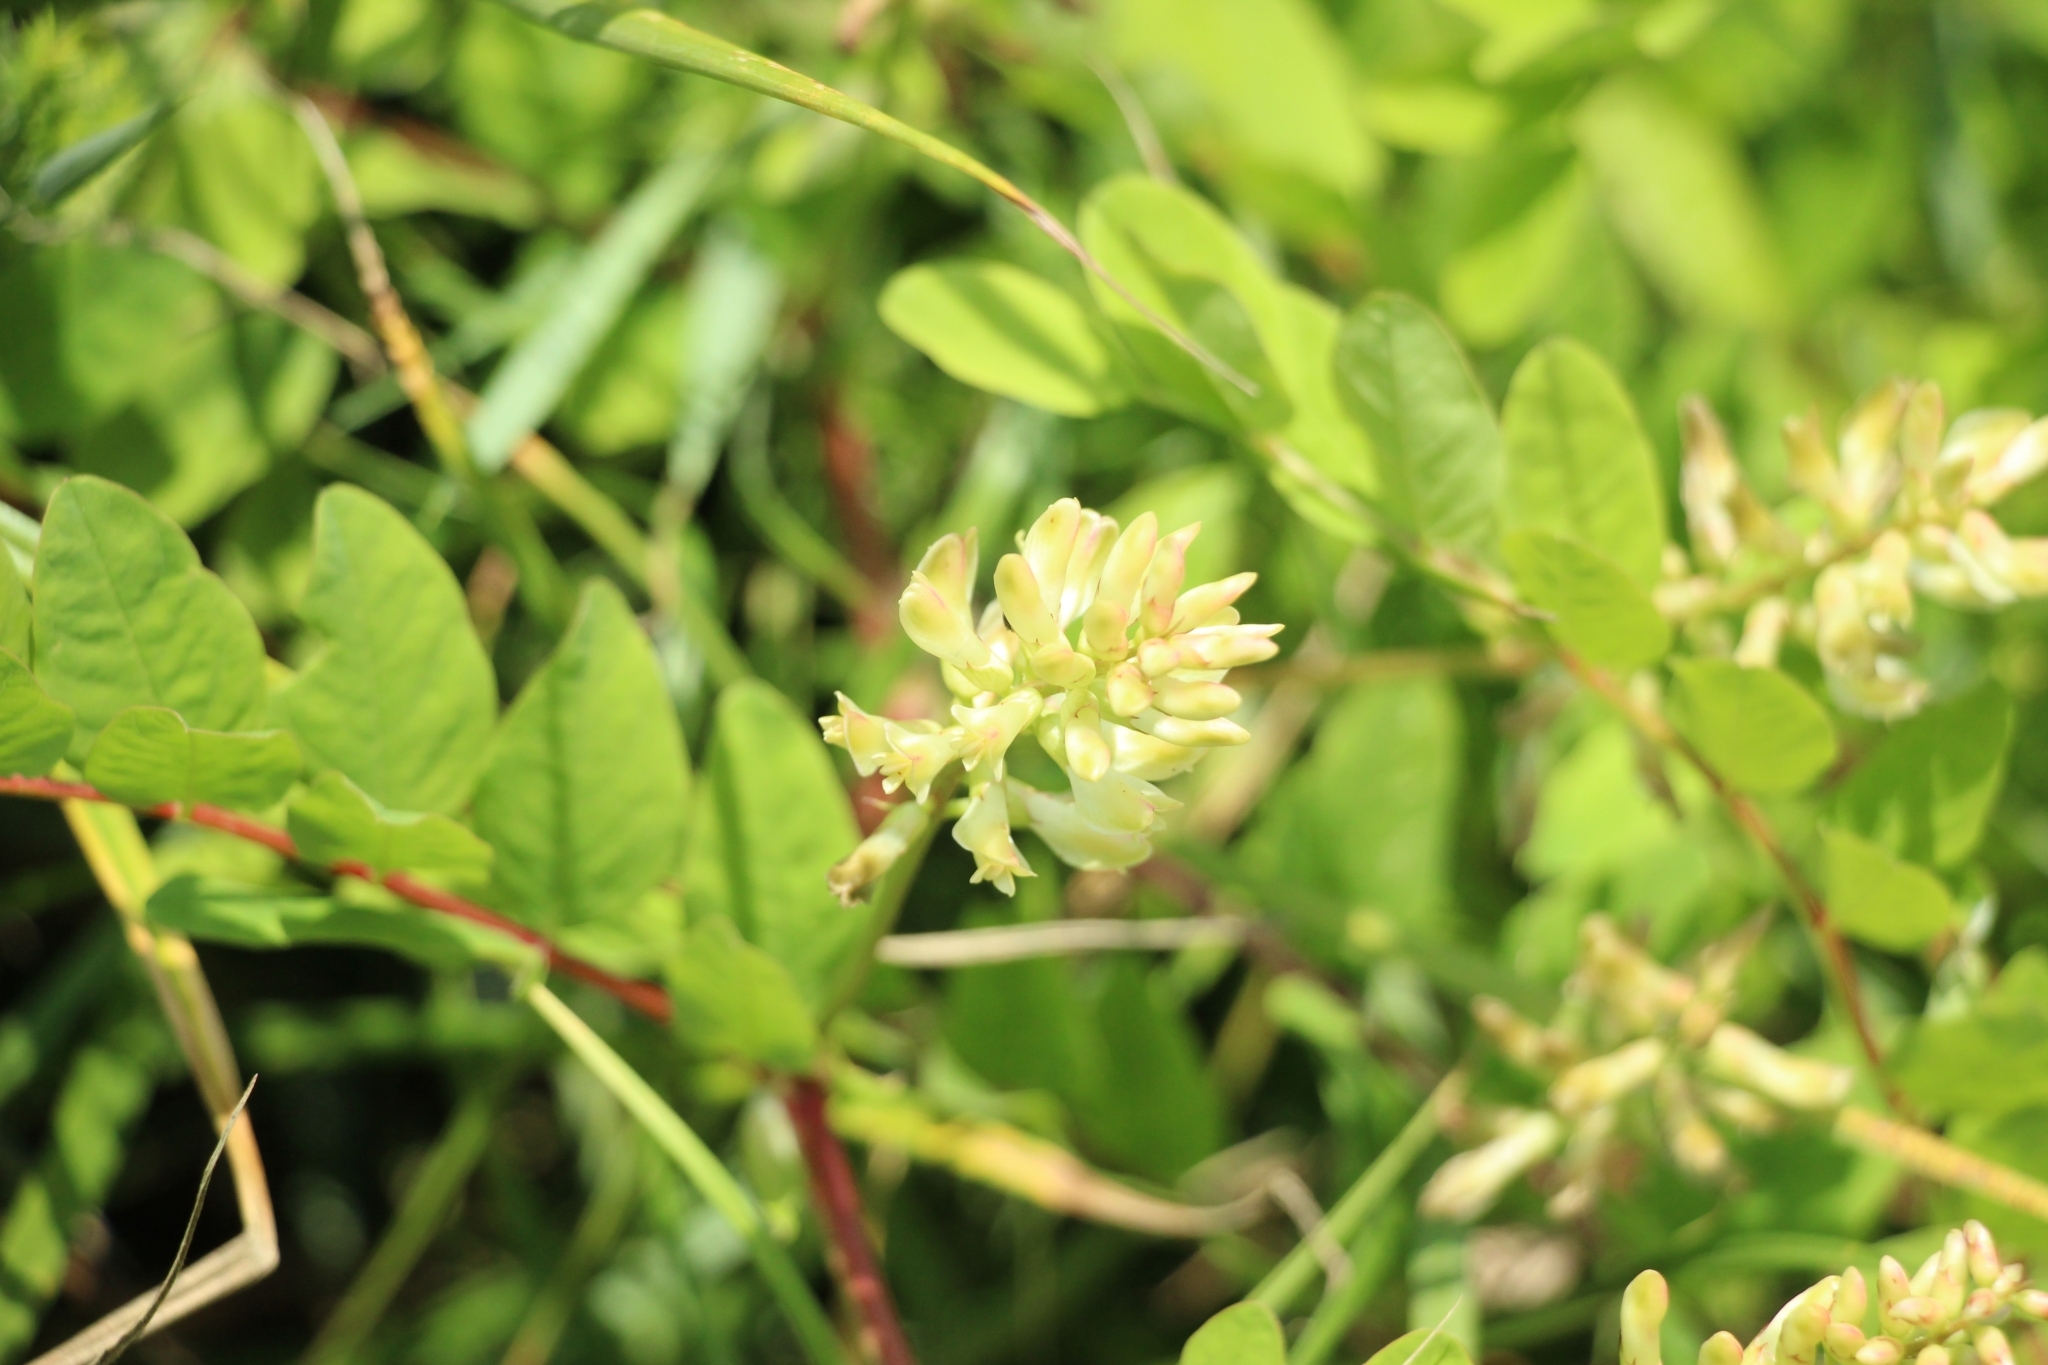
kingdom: Plantae
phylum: Tracheophyta
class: Magnoliopsida
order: Fabales
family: Fabaceae
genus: Astragalus
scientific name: Astragalus glycyphyllos
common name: Wild liquorice
